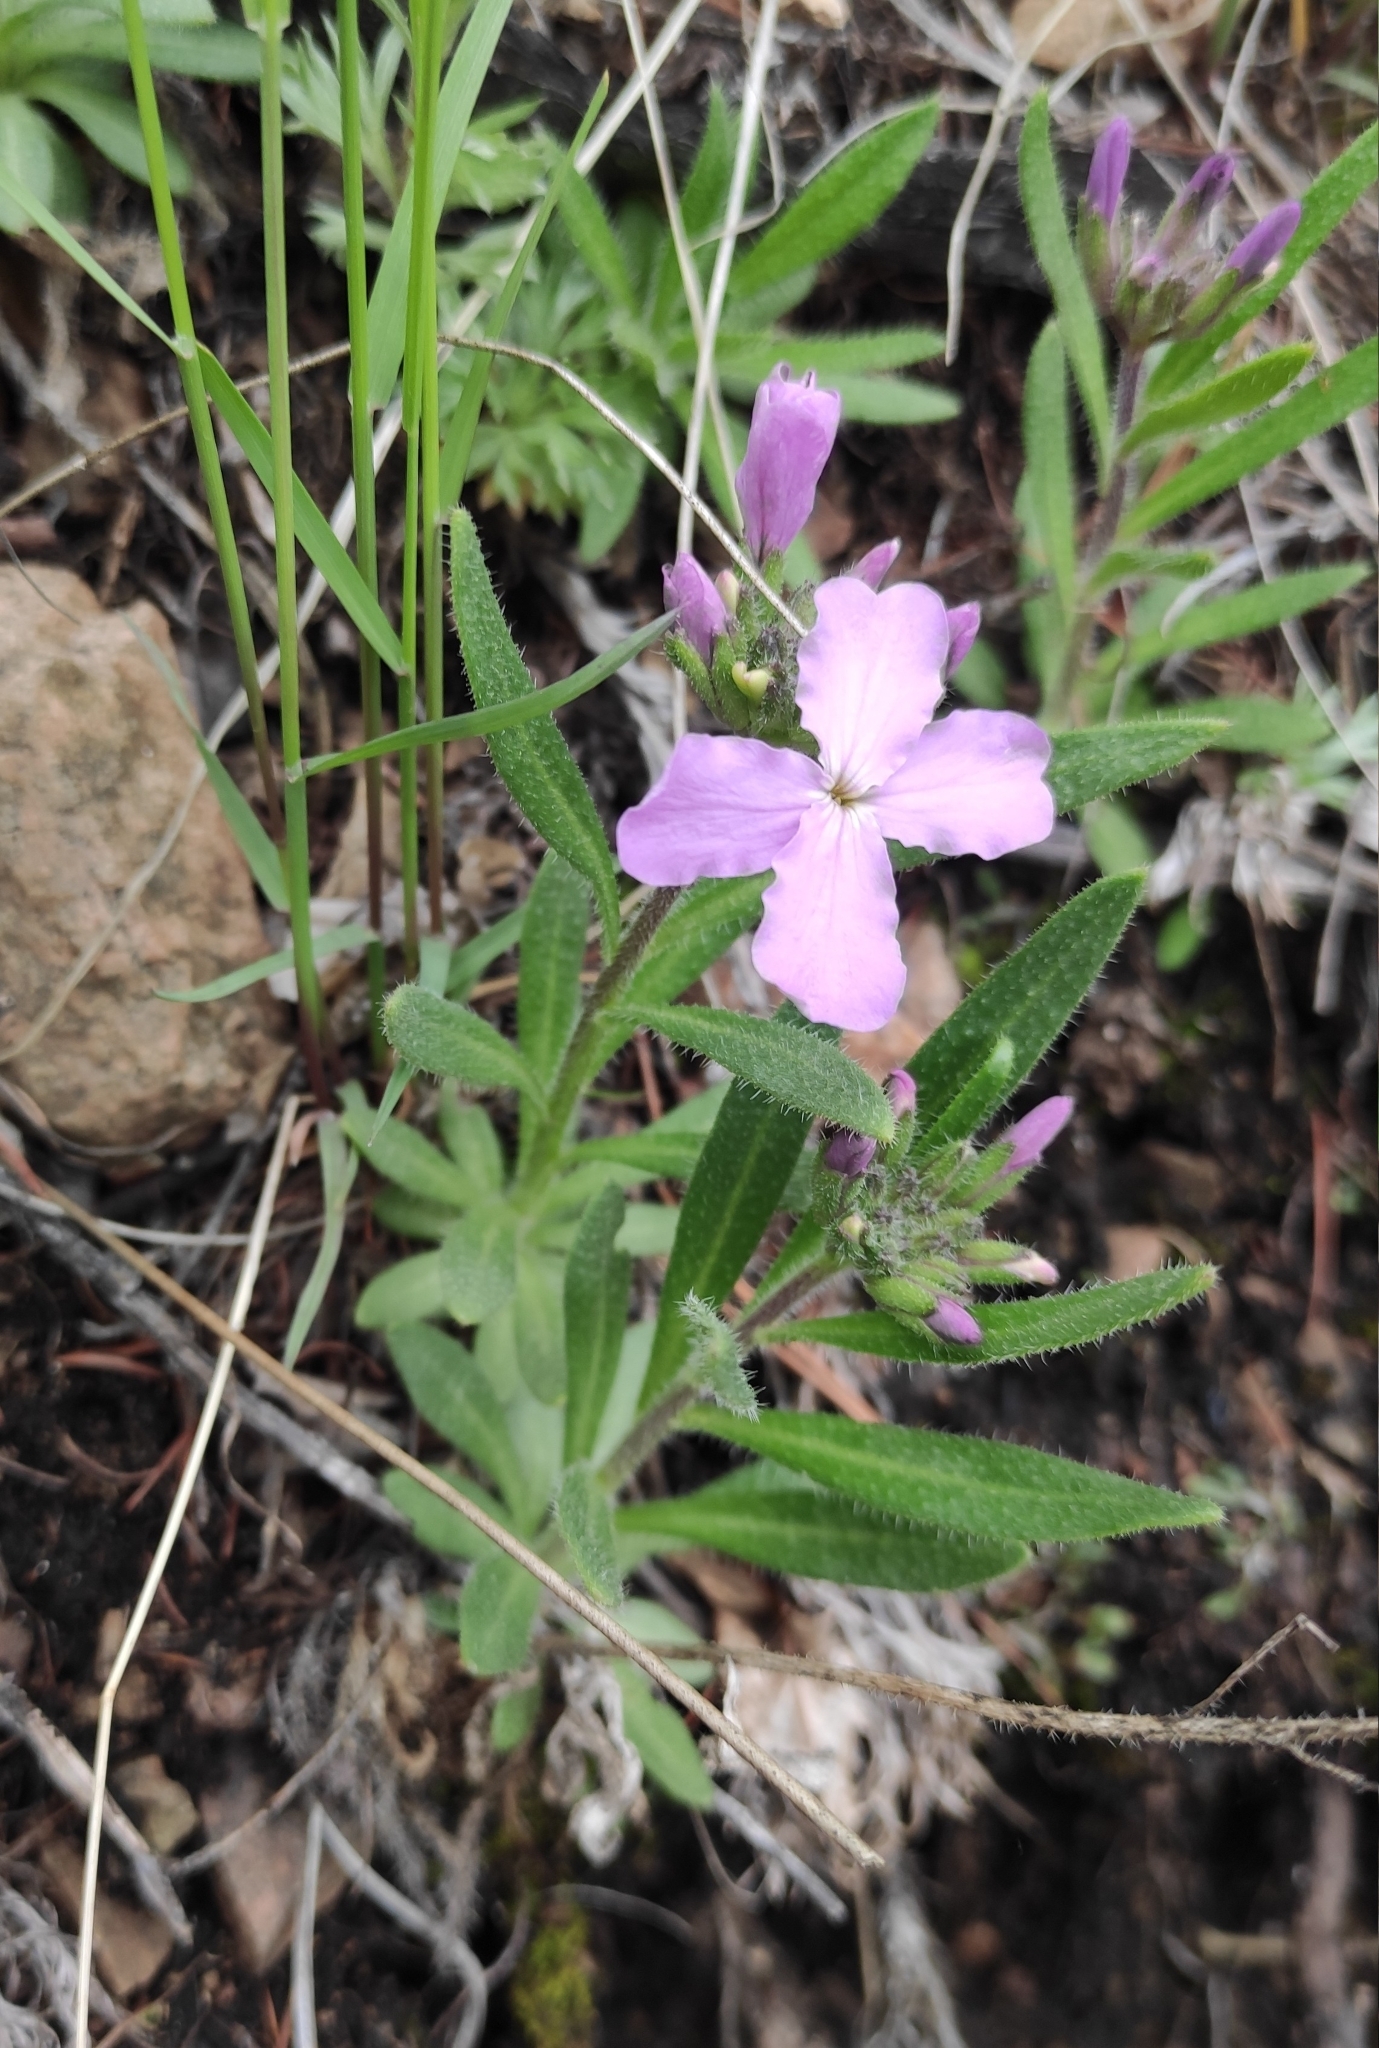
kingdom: Plantae
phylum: Tracheophyta
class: Magnoliopsida
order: Brassicales
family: Brassicaceae
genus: Clausia
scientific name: Clausia aprica
